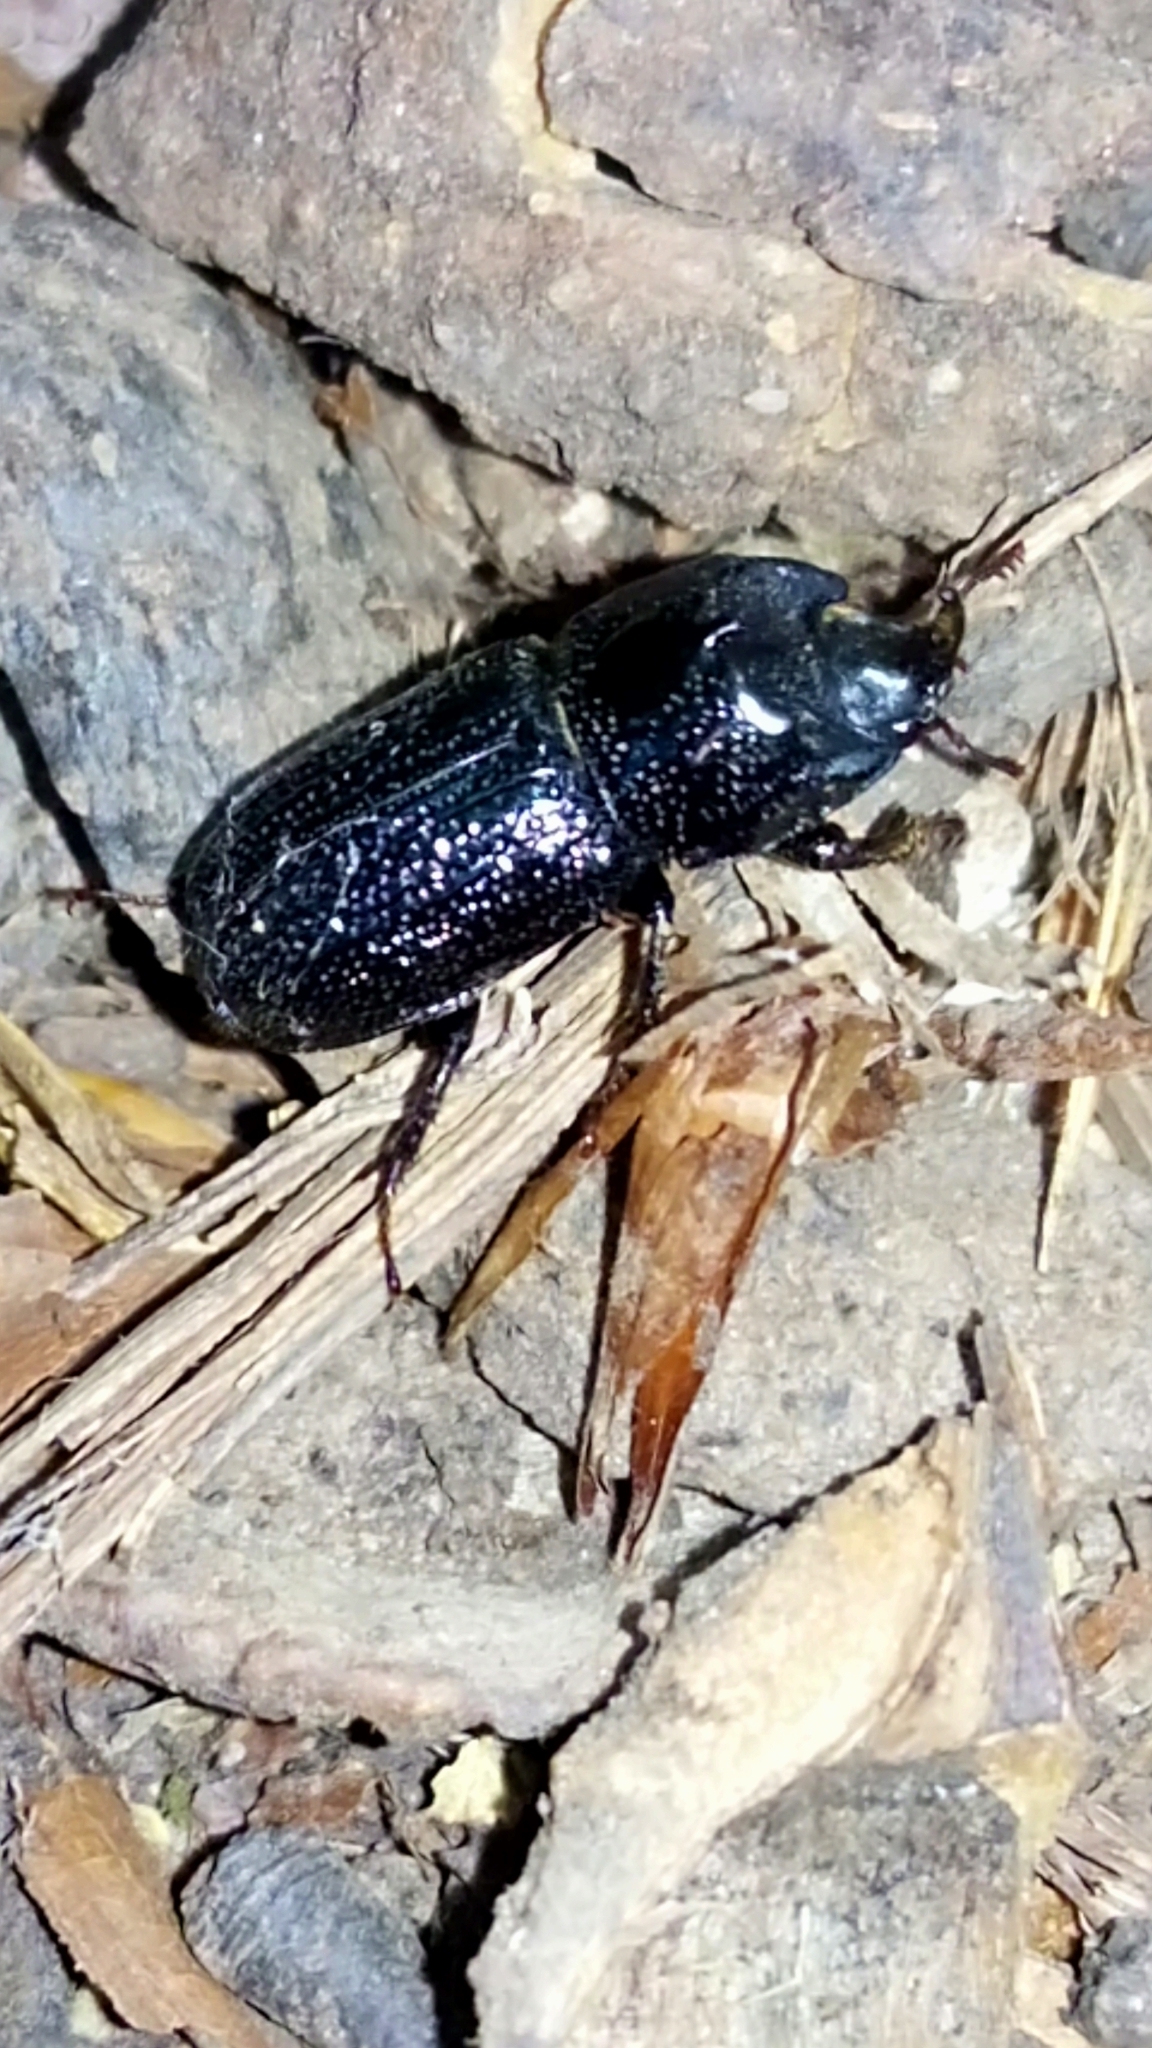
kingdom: Animalia
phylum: Arthropoda
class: Insecta
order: Coleoptera
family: Lucanidae
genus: Sinodendron
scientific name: Sinodendron cylindricum
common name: Rhinoceros beetle
